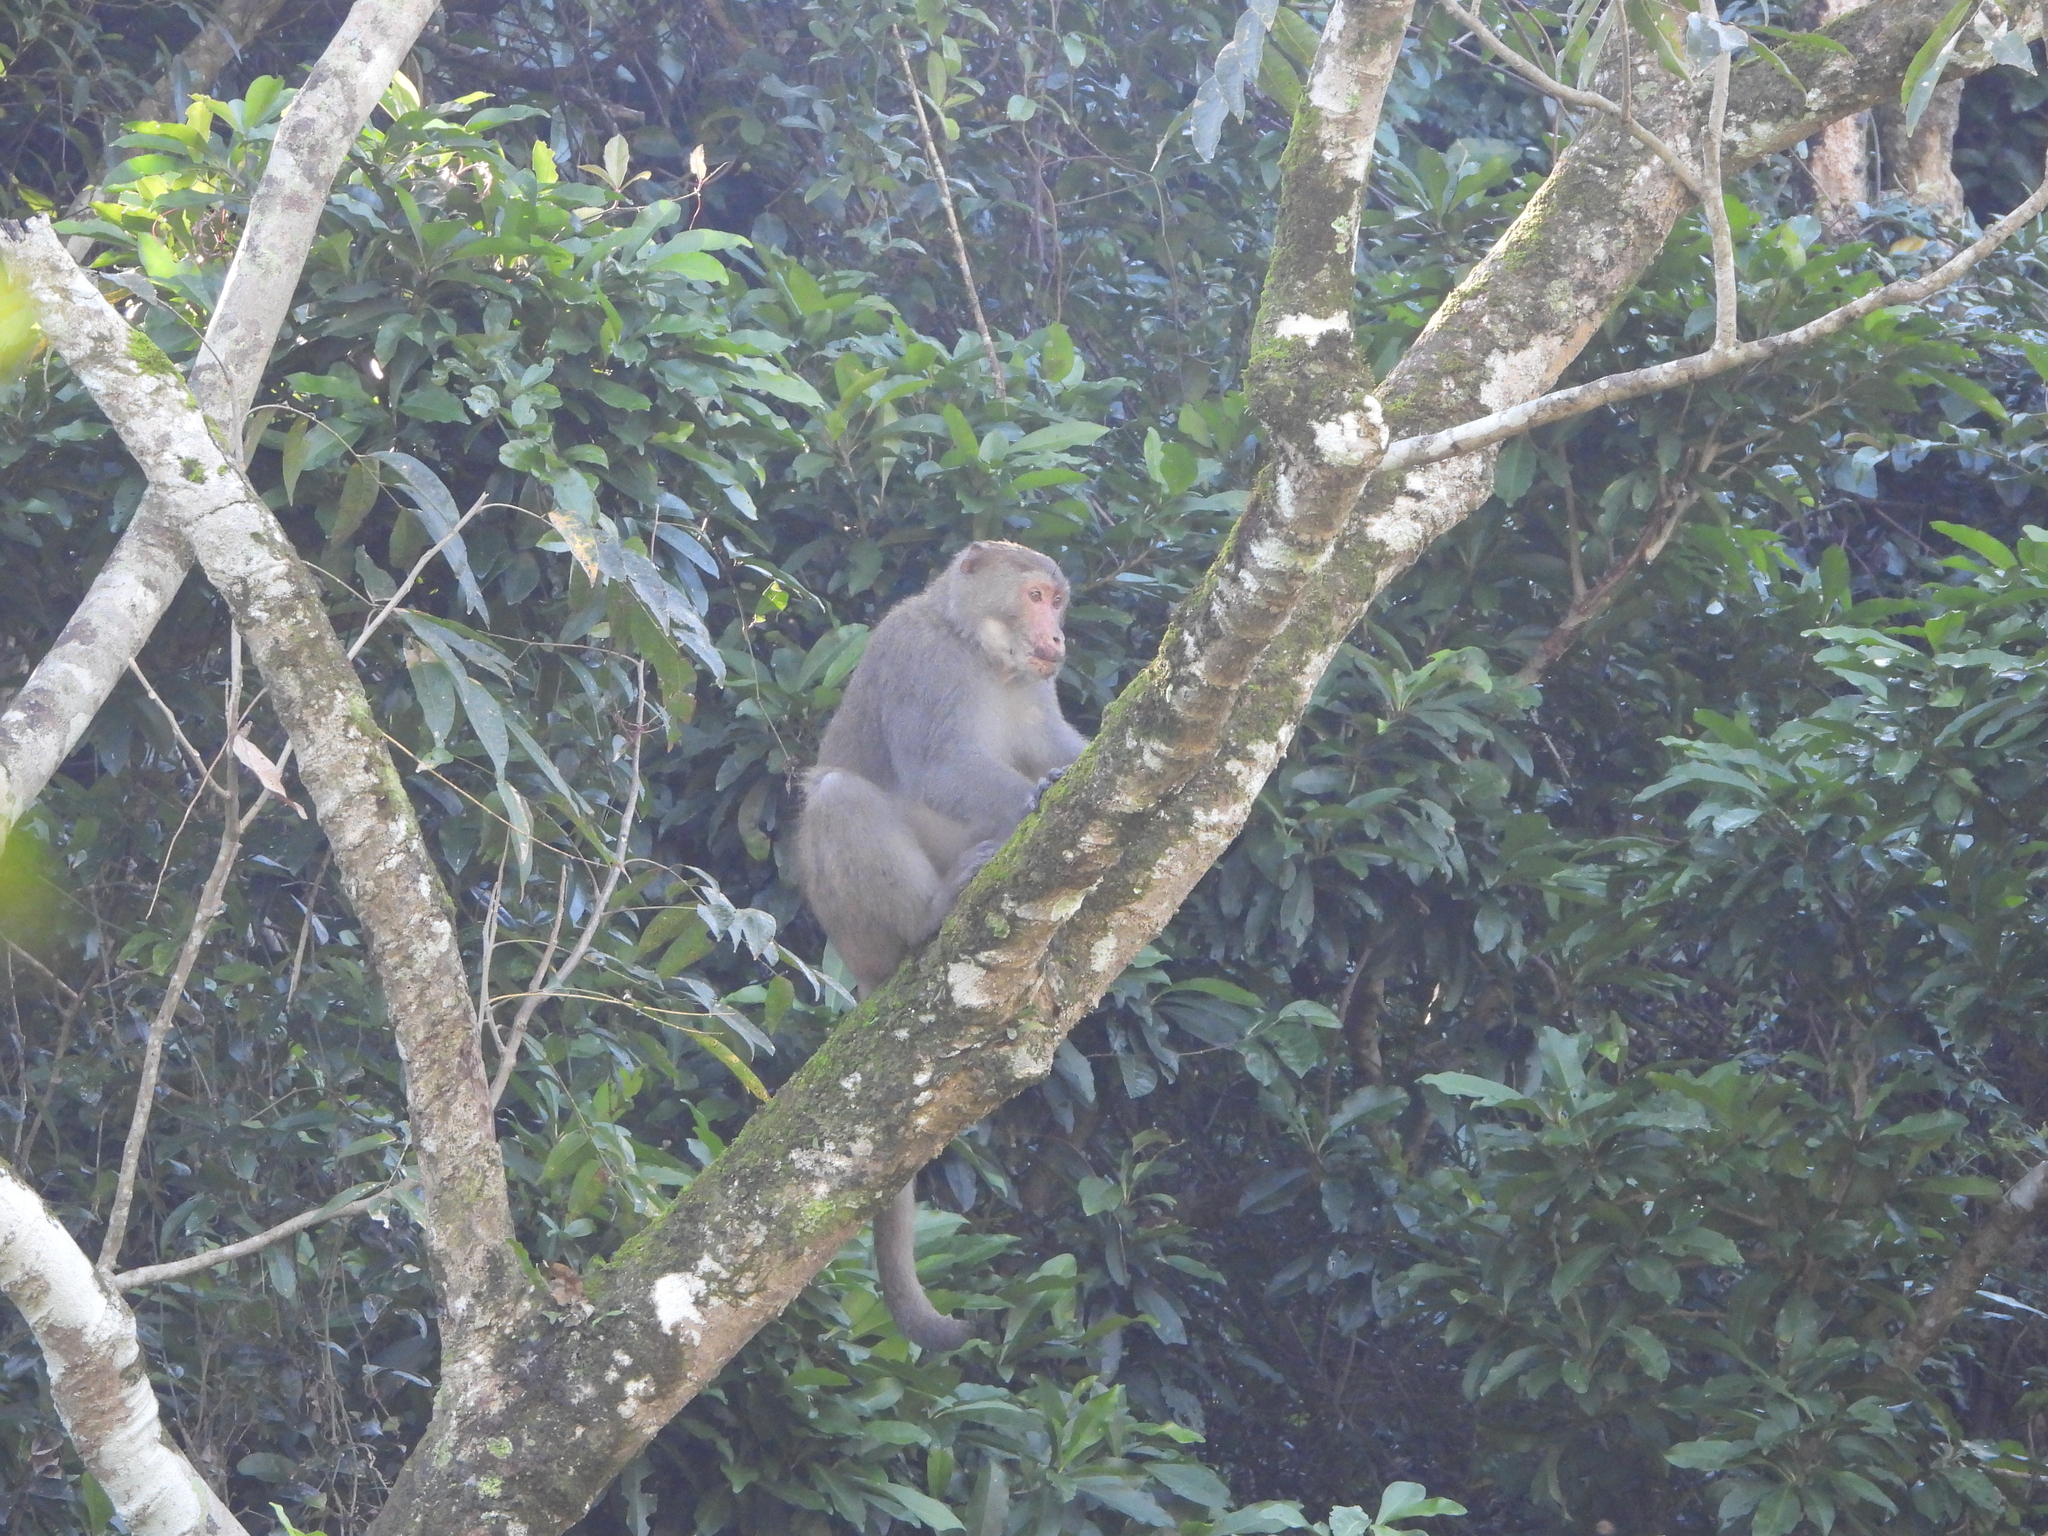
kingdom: Animalia
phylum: Chordata
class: Mammalia
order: Primates
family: Cercopithecidae
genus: Macaca
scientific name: Macaca cyclopis
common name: Formosan rock macaque
